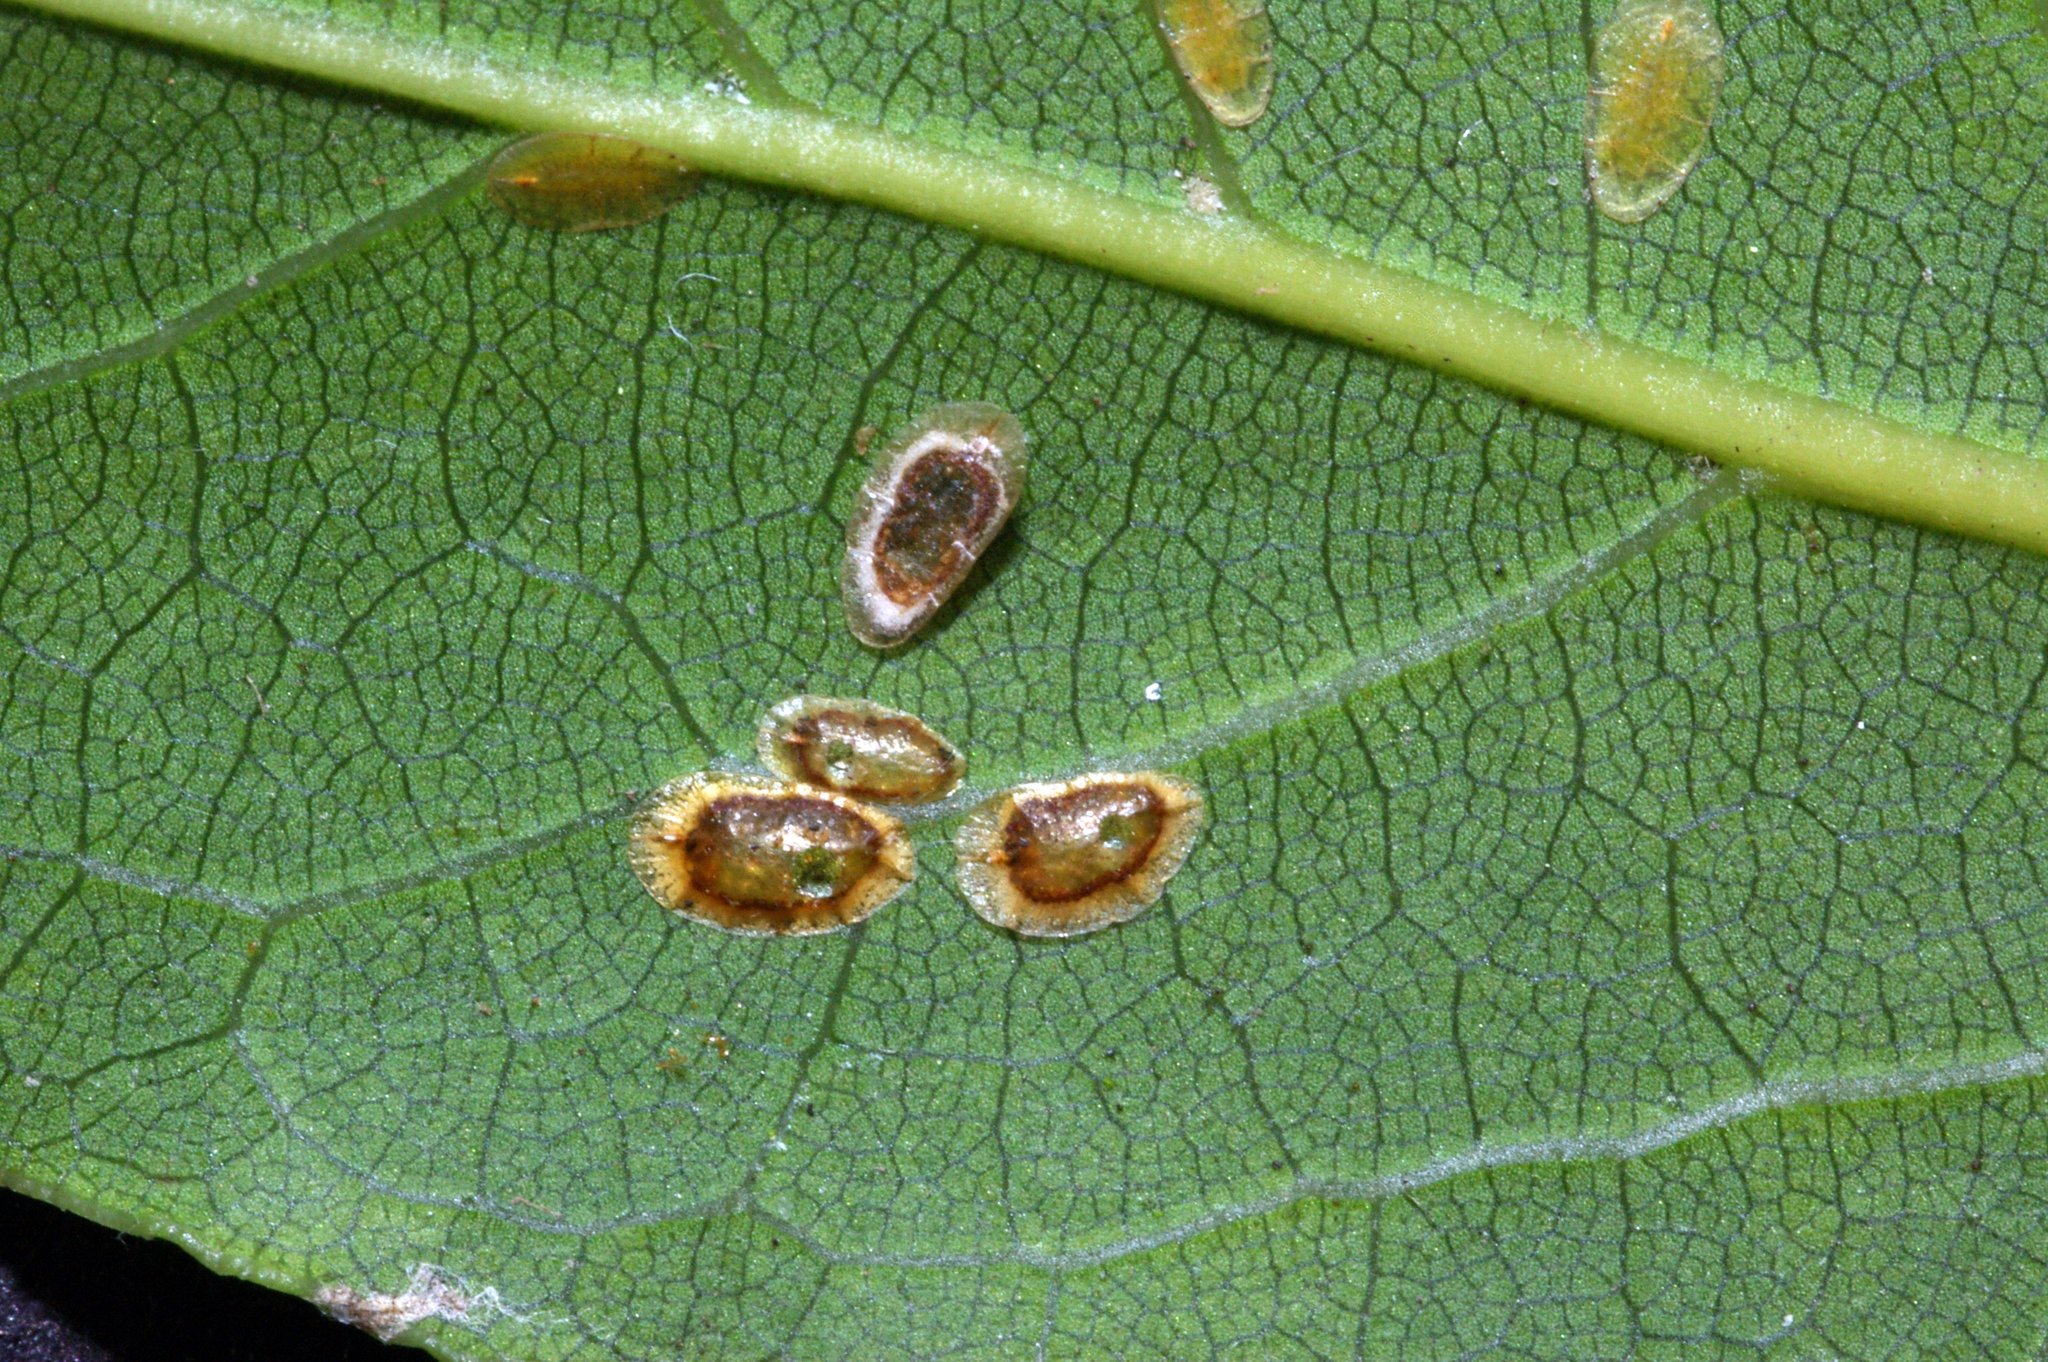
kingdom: Animalia
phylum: Arthropoda
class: Insecta
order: Hemiptera
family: Coccidae
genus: Coccus
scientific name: Coccus hesperidum
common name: Soft brown scale
